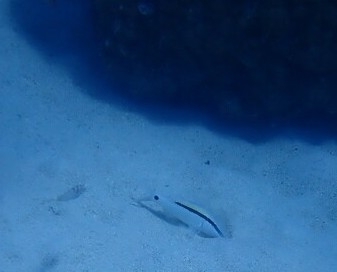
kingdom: Animalia
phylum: Chordata
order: Perciformes
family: Mullidae
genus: Parupeneus
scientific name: Parupeneus barberinus
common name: Dash-and-dot goatfish
